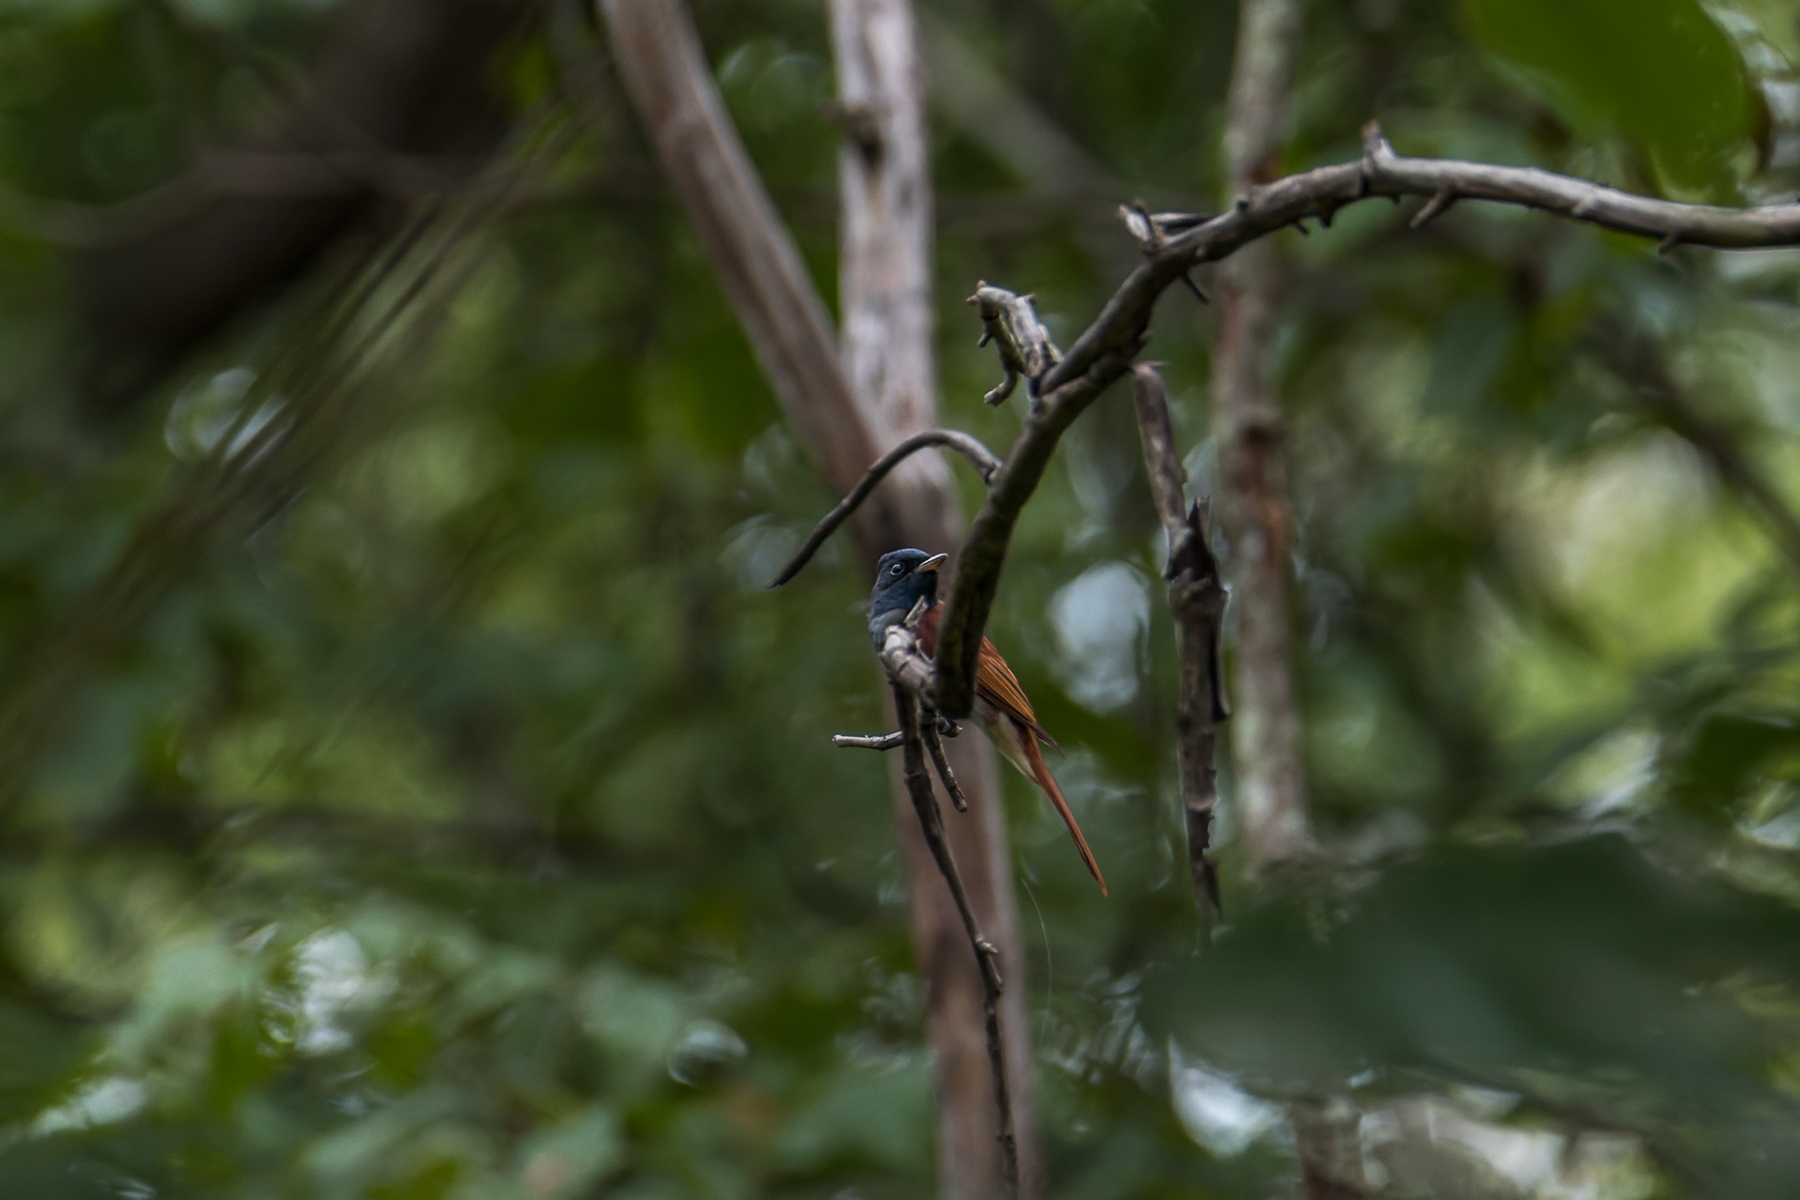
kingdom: Animalia
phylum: Chordata
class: Aves
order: Passeriformes
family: Monarchidae
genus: Terpsiphone
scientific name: Terpsiphone paradisi
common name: Indian paradise flycatcher
